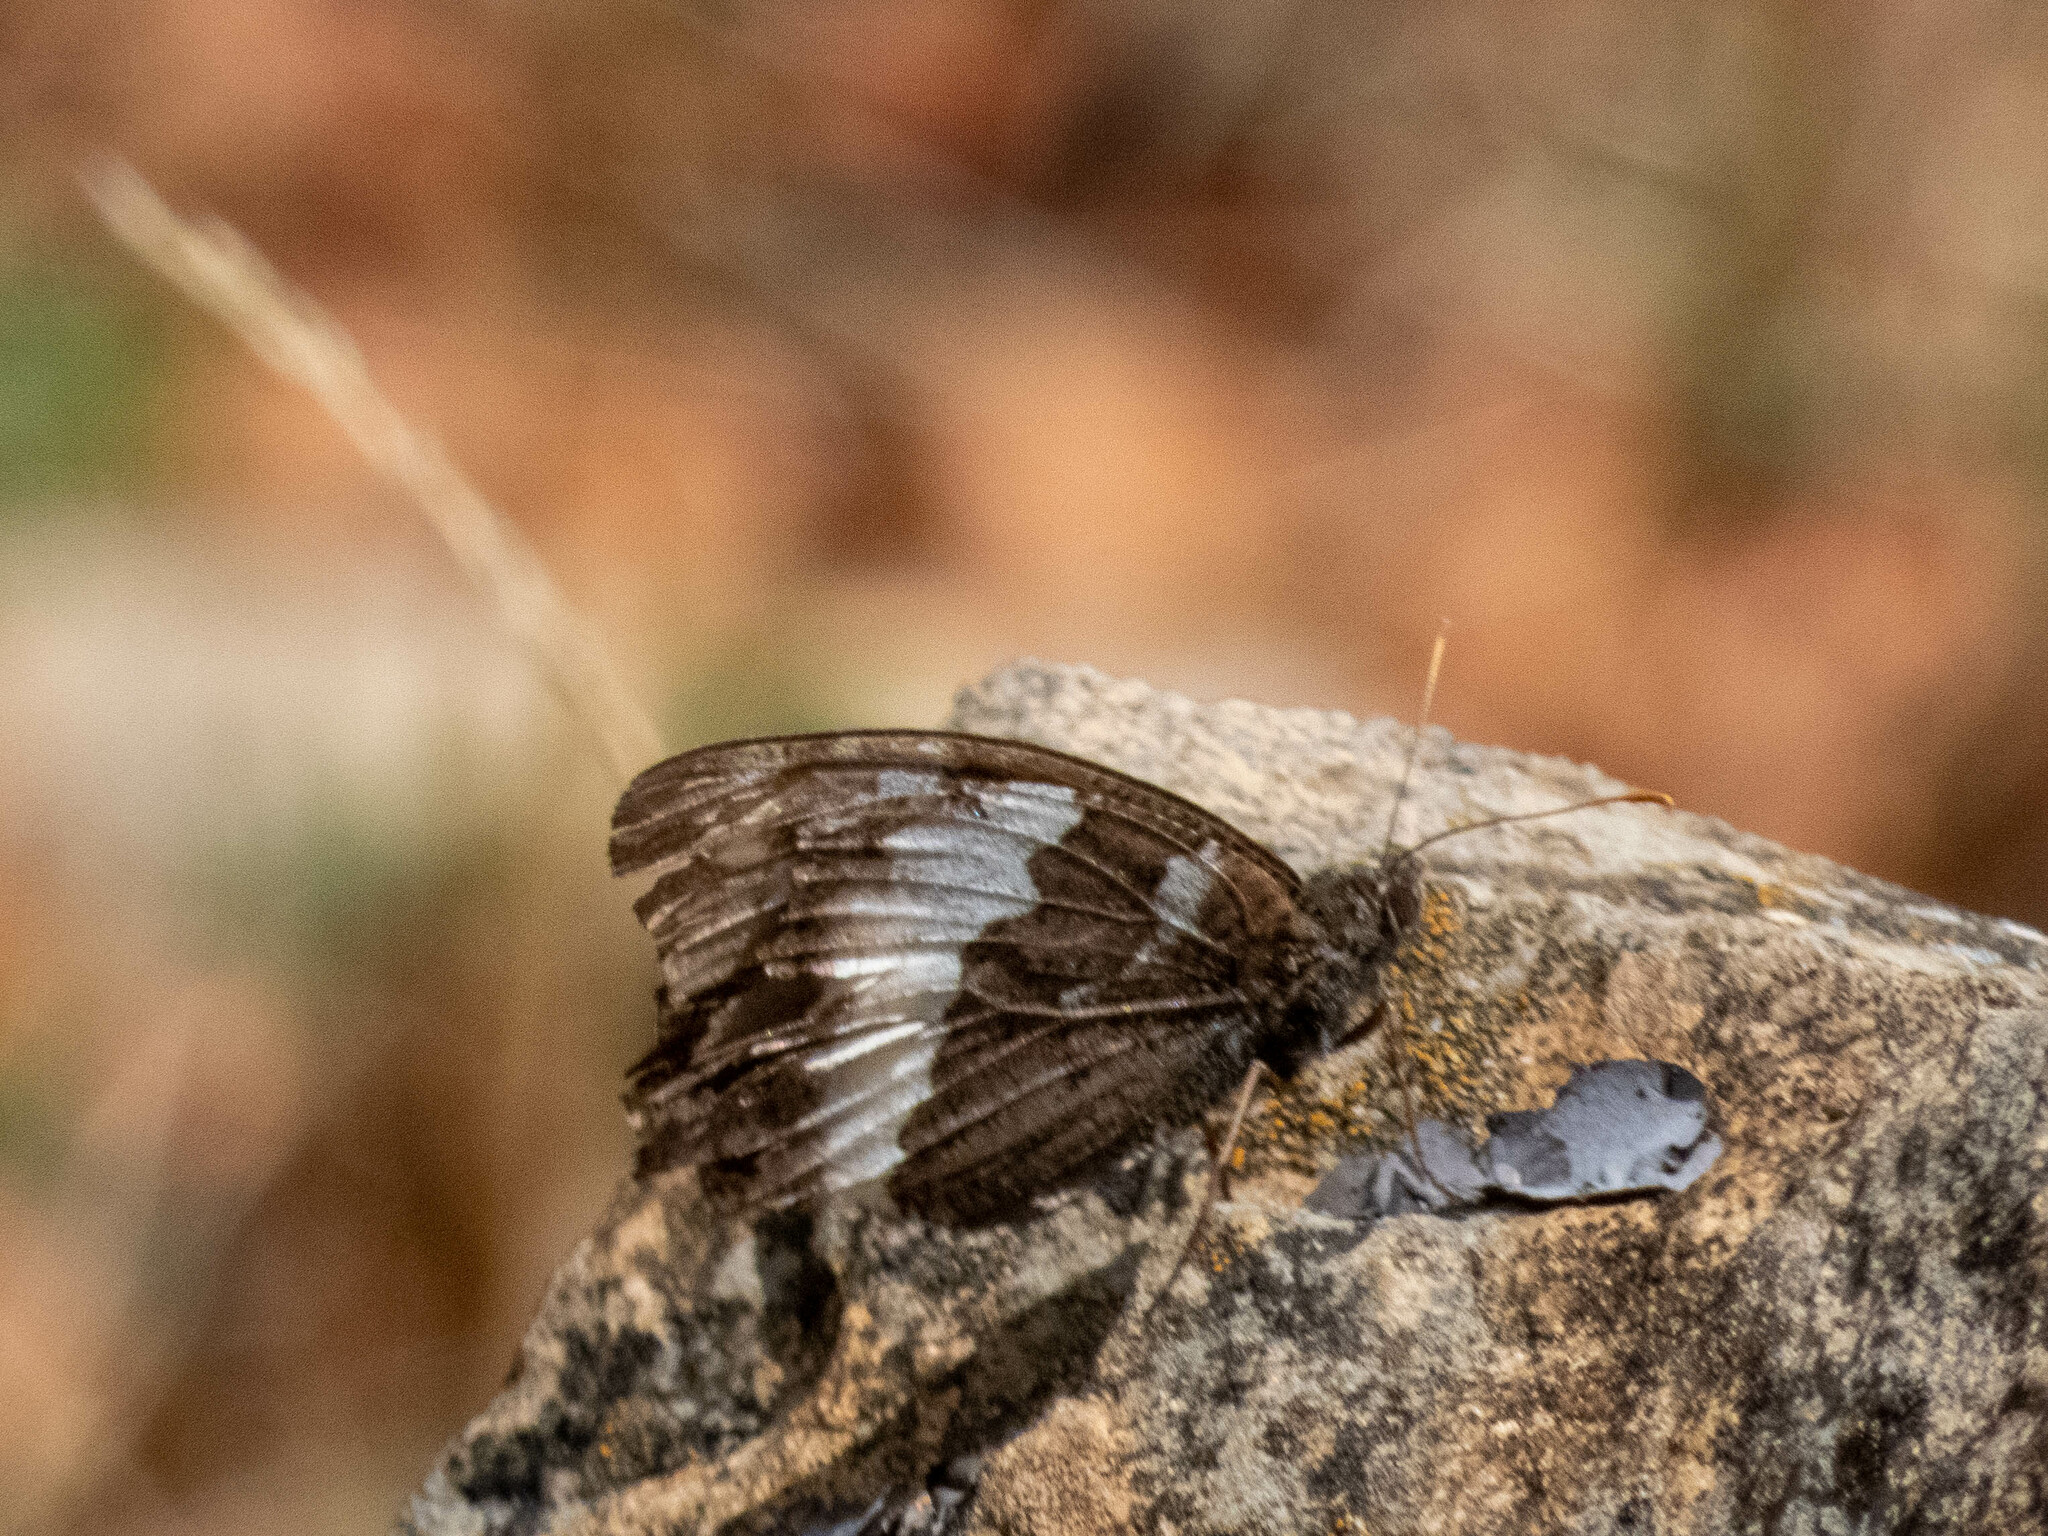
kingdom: Animalia
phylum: Arthropoda
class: Insecta
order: Lepidoptera
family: Lycaenidae
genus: Loweia
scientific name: Loweia tityrus
